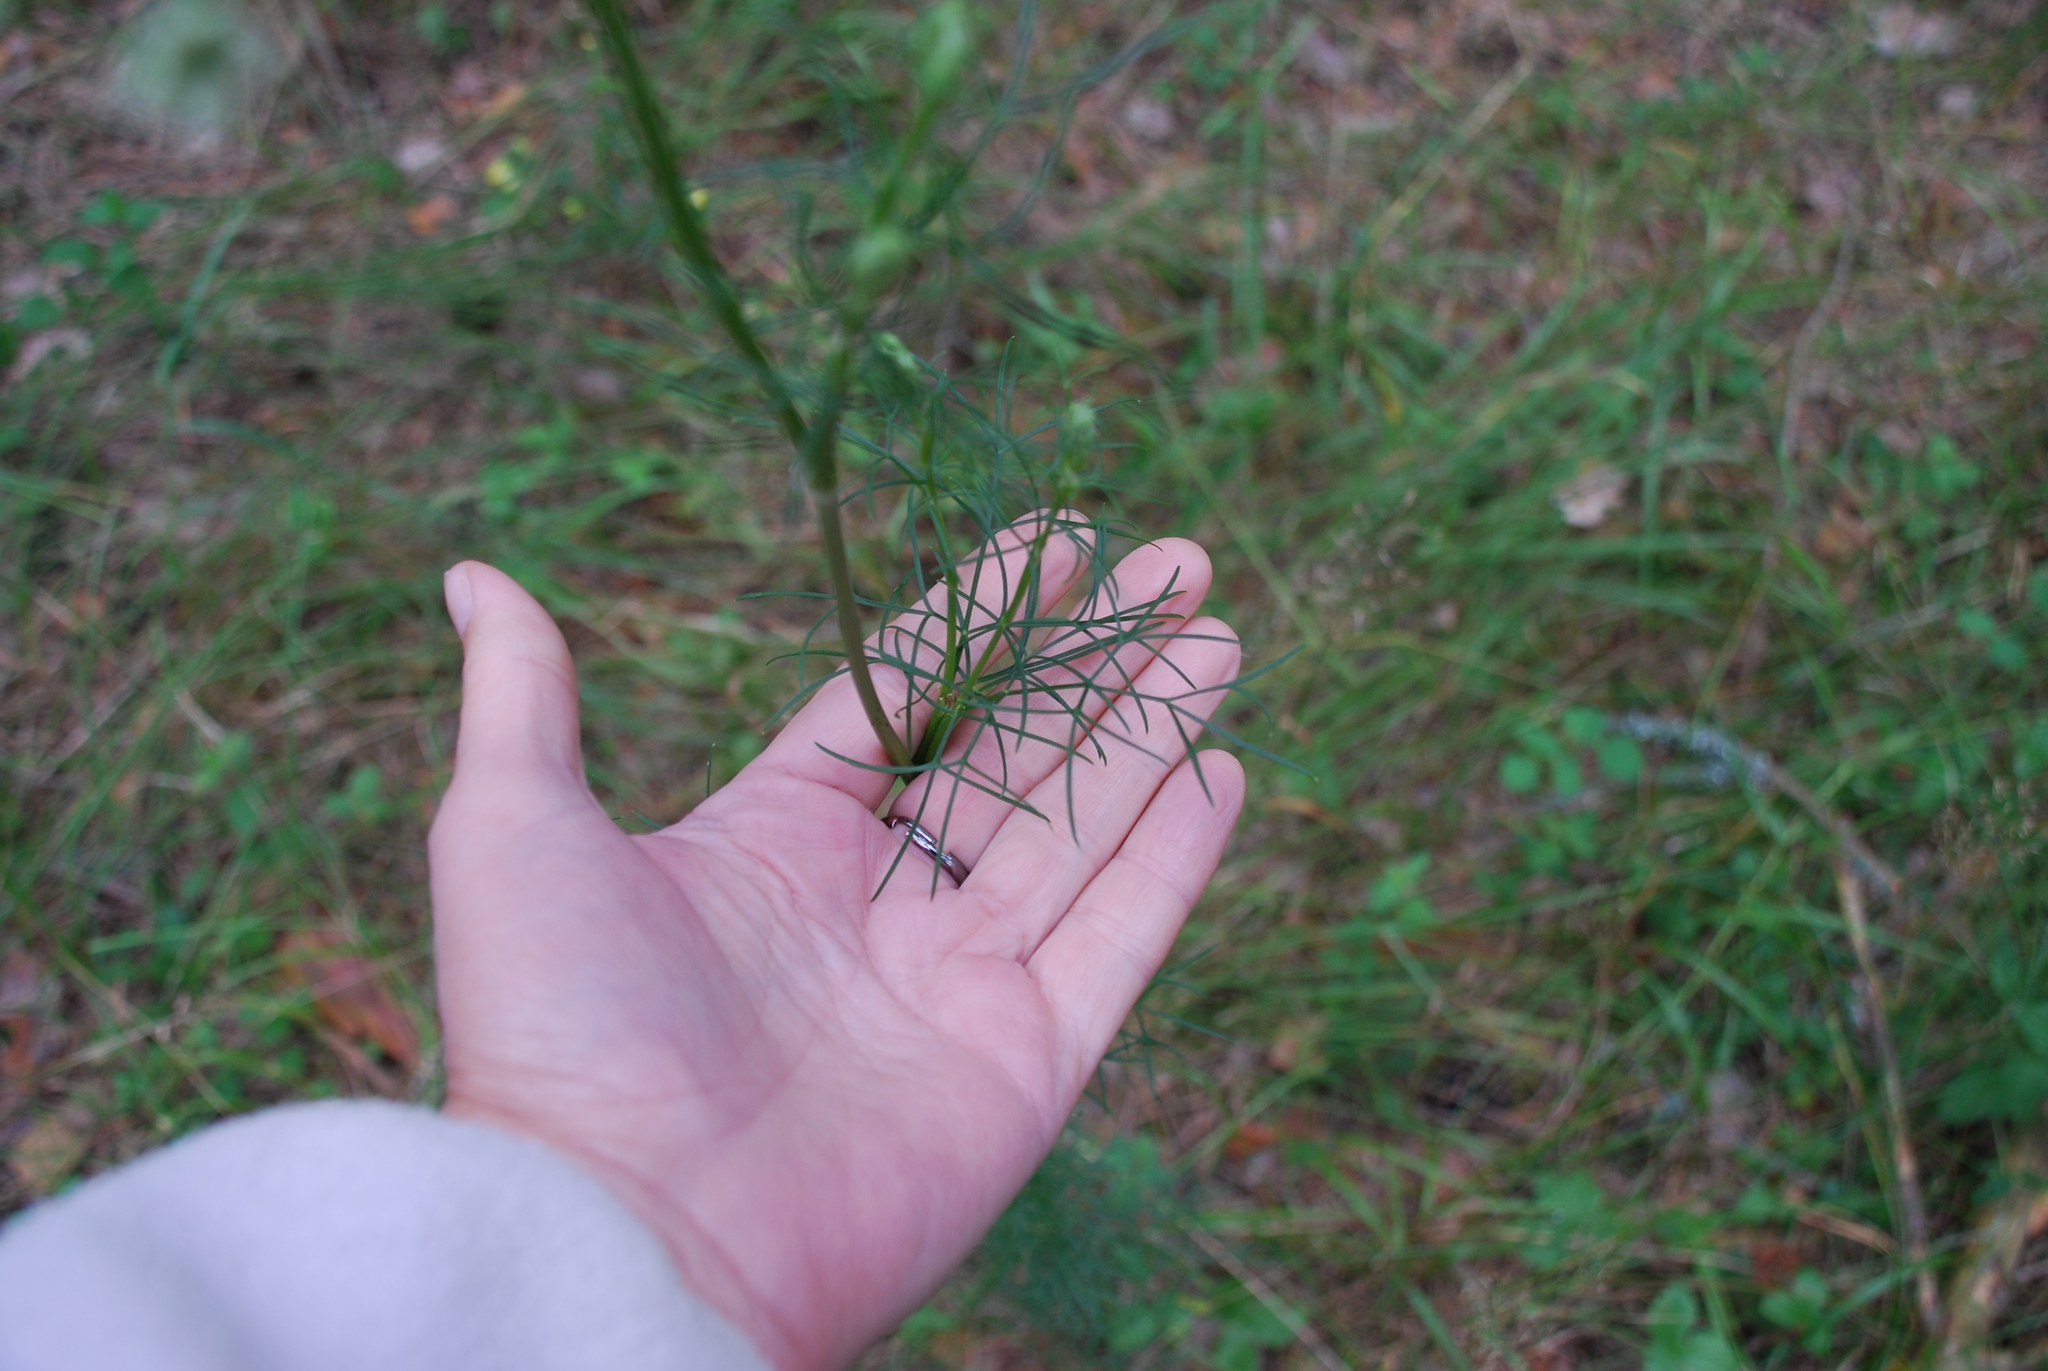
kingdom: Plantae
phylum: Tracheophyta
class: Magnoliopsida
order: Apiales
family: Apiaceae
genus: Seseli
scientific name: Seseli annuum
